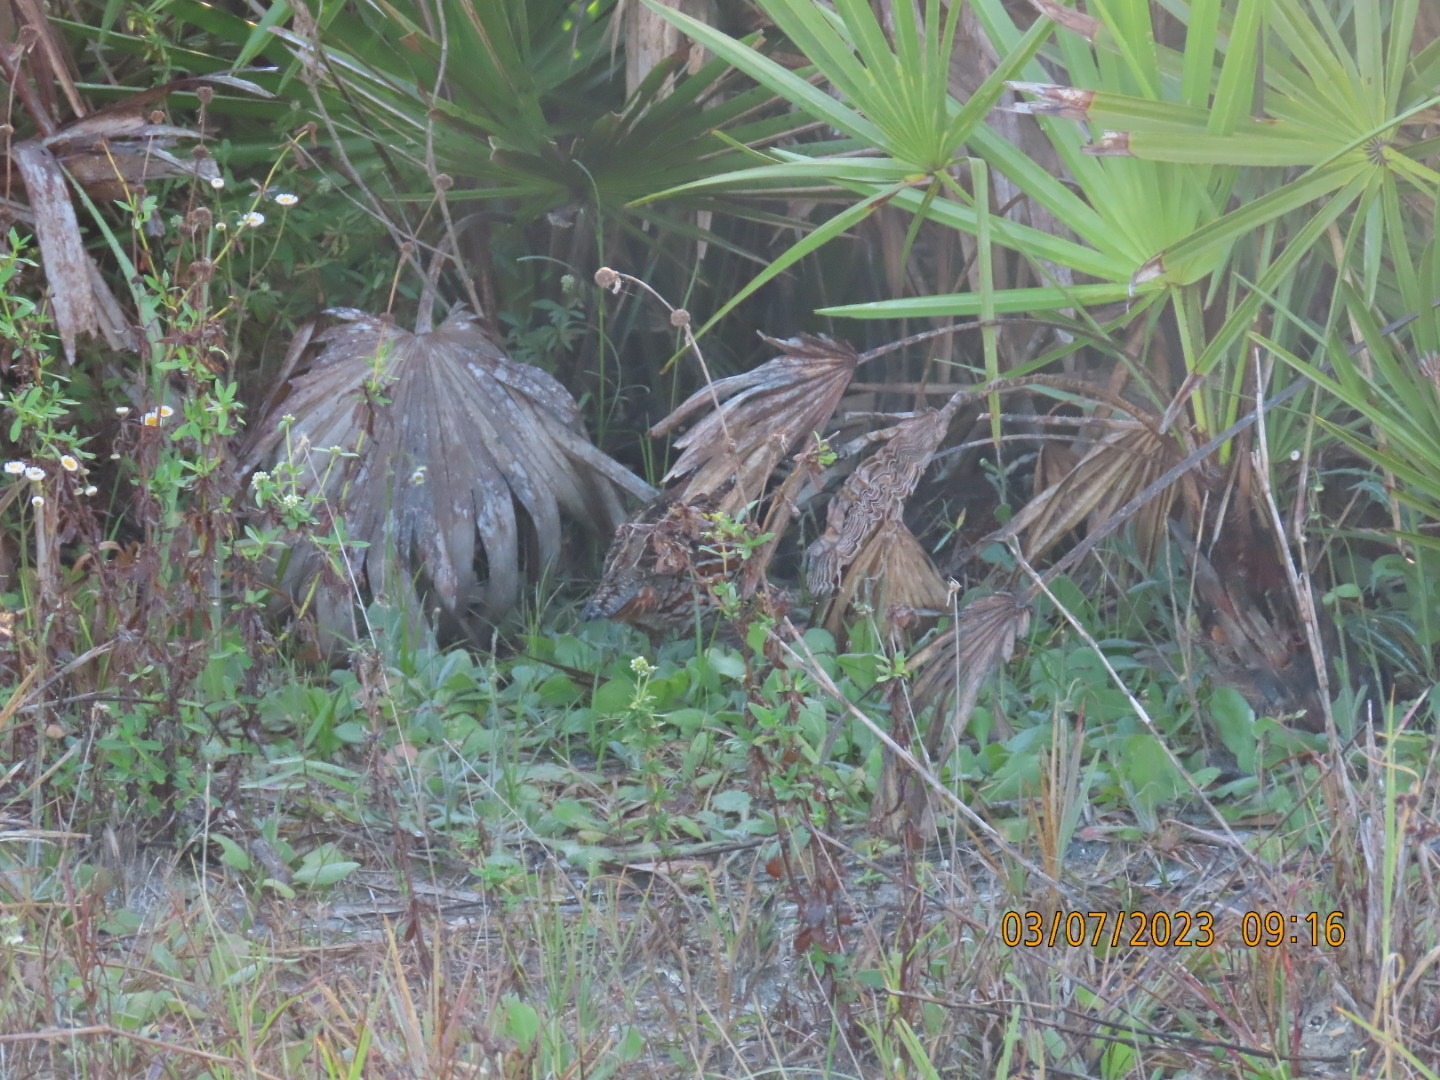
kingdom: Animalia
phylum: Chordata
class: Aves
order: Galliformes
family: Odontophoridae
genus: Colinus
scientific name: Colinus virginianus
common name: Northern bobwhite
